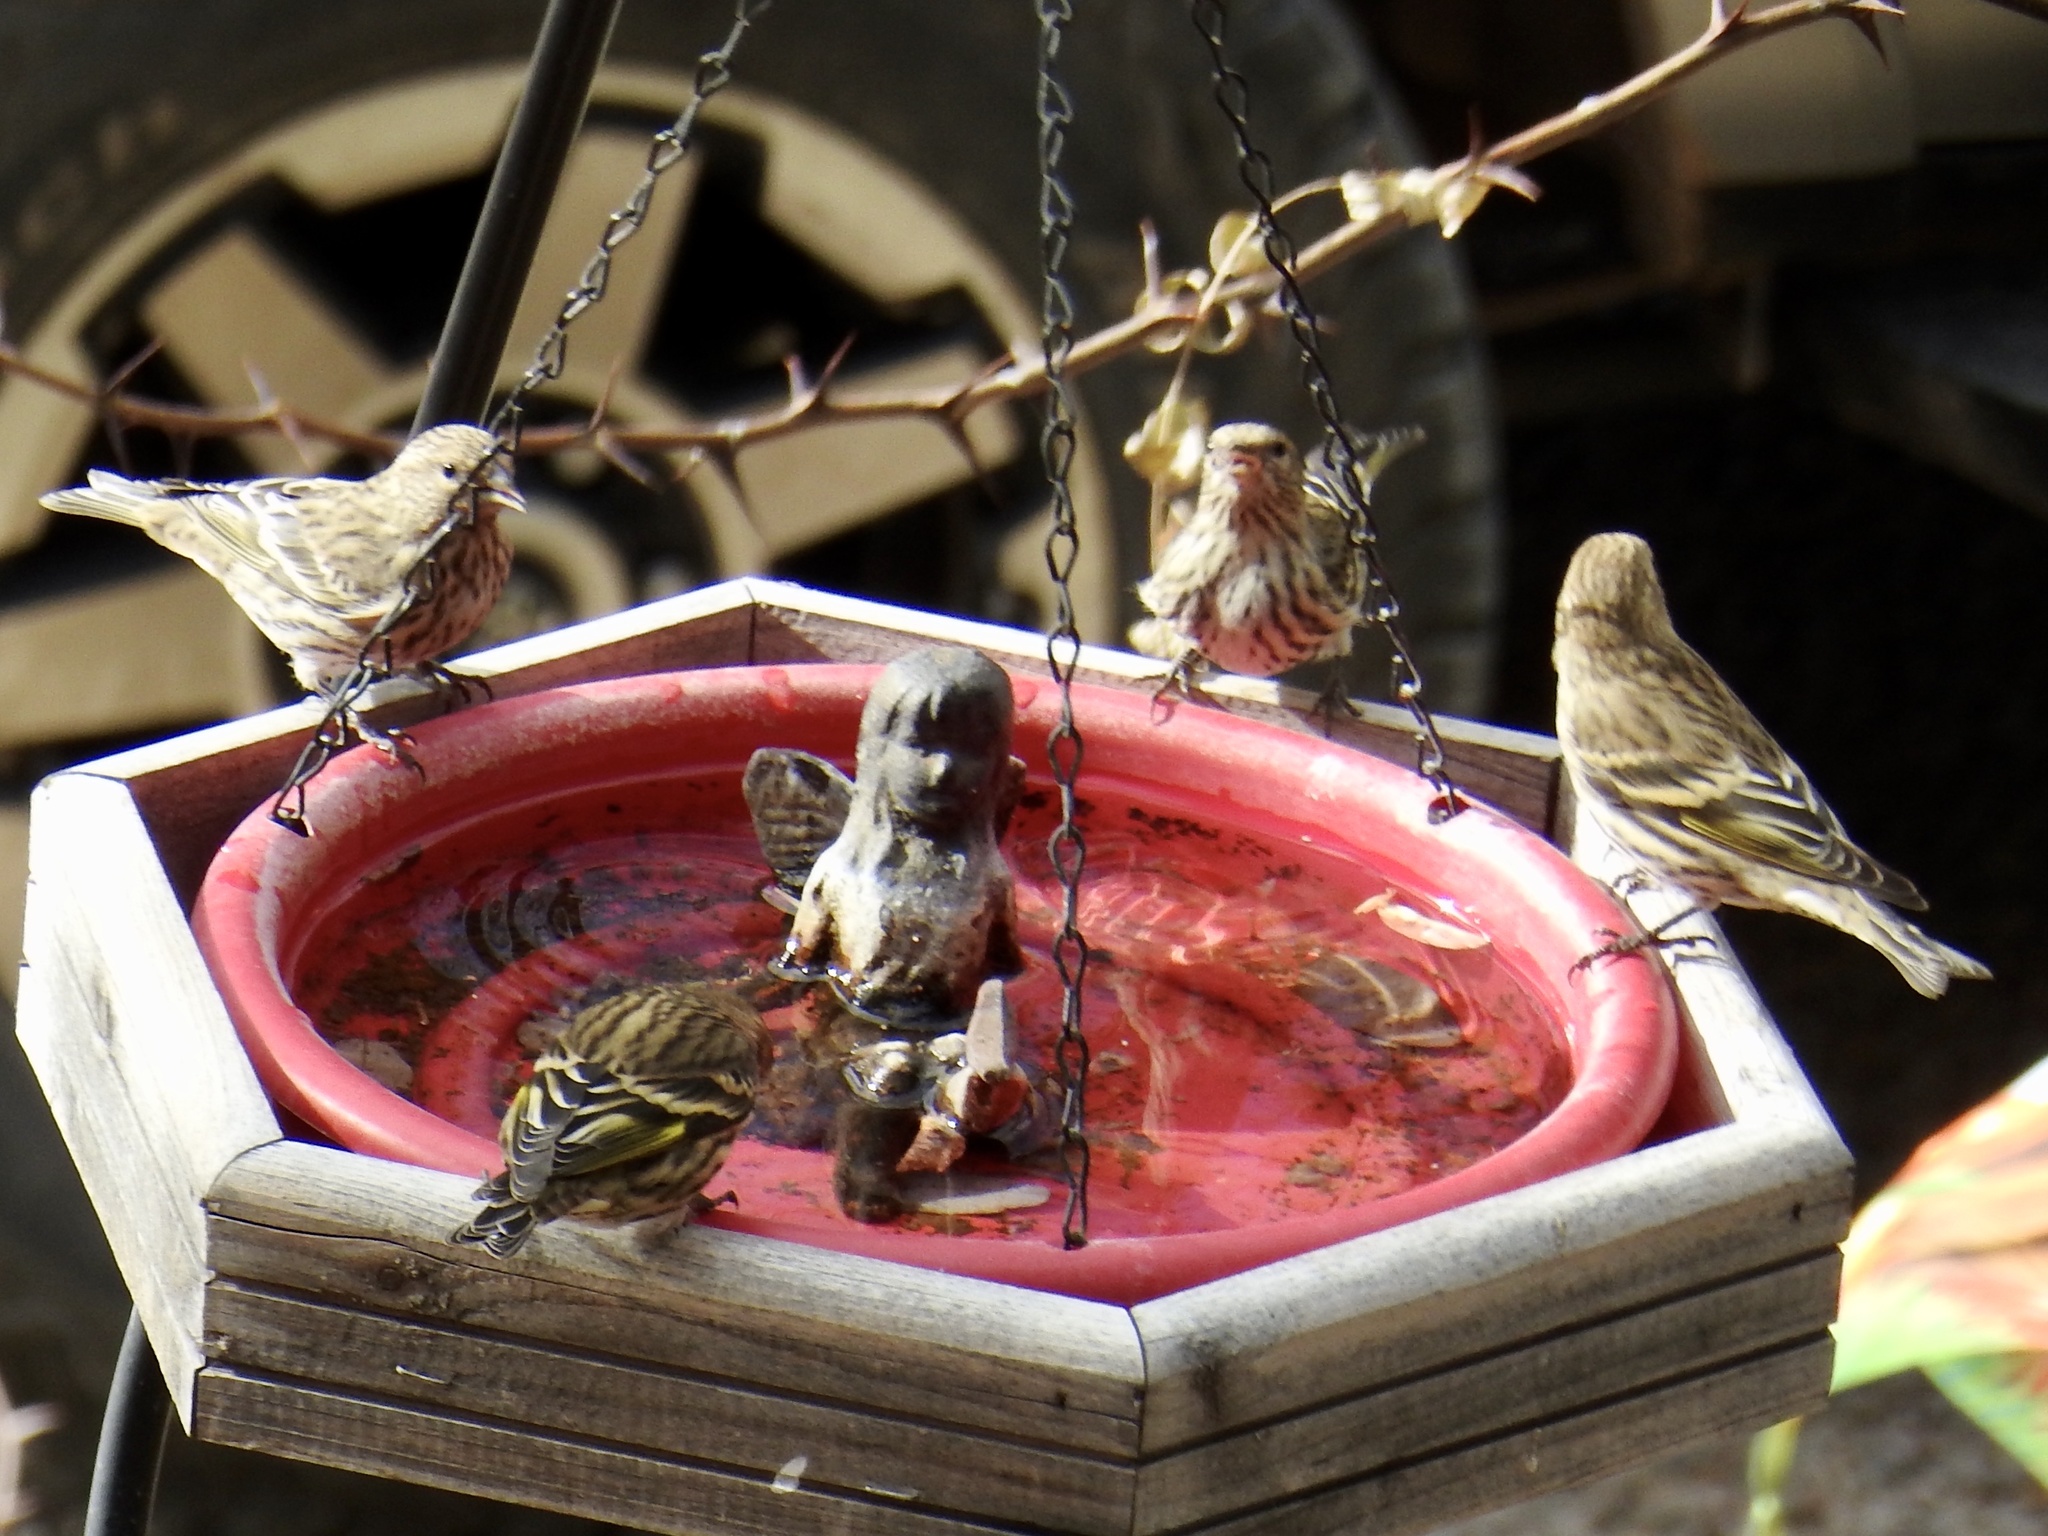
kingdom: Animalia
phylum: Chordata
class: Aves
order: Passeriformes
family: Fringillidae
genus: Spinus
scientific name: Spinus pinus
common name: Pine siskin
